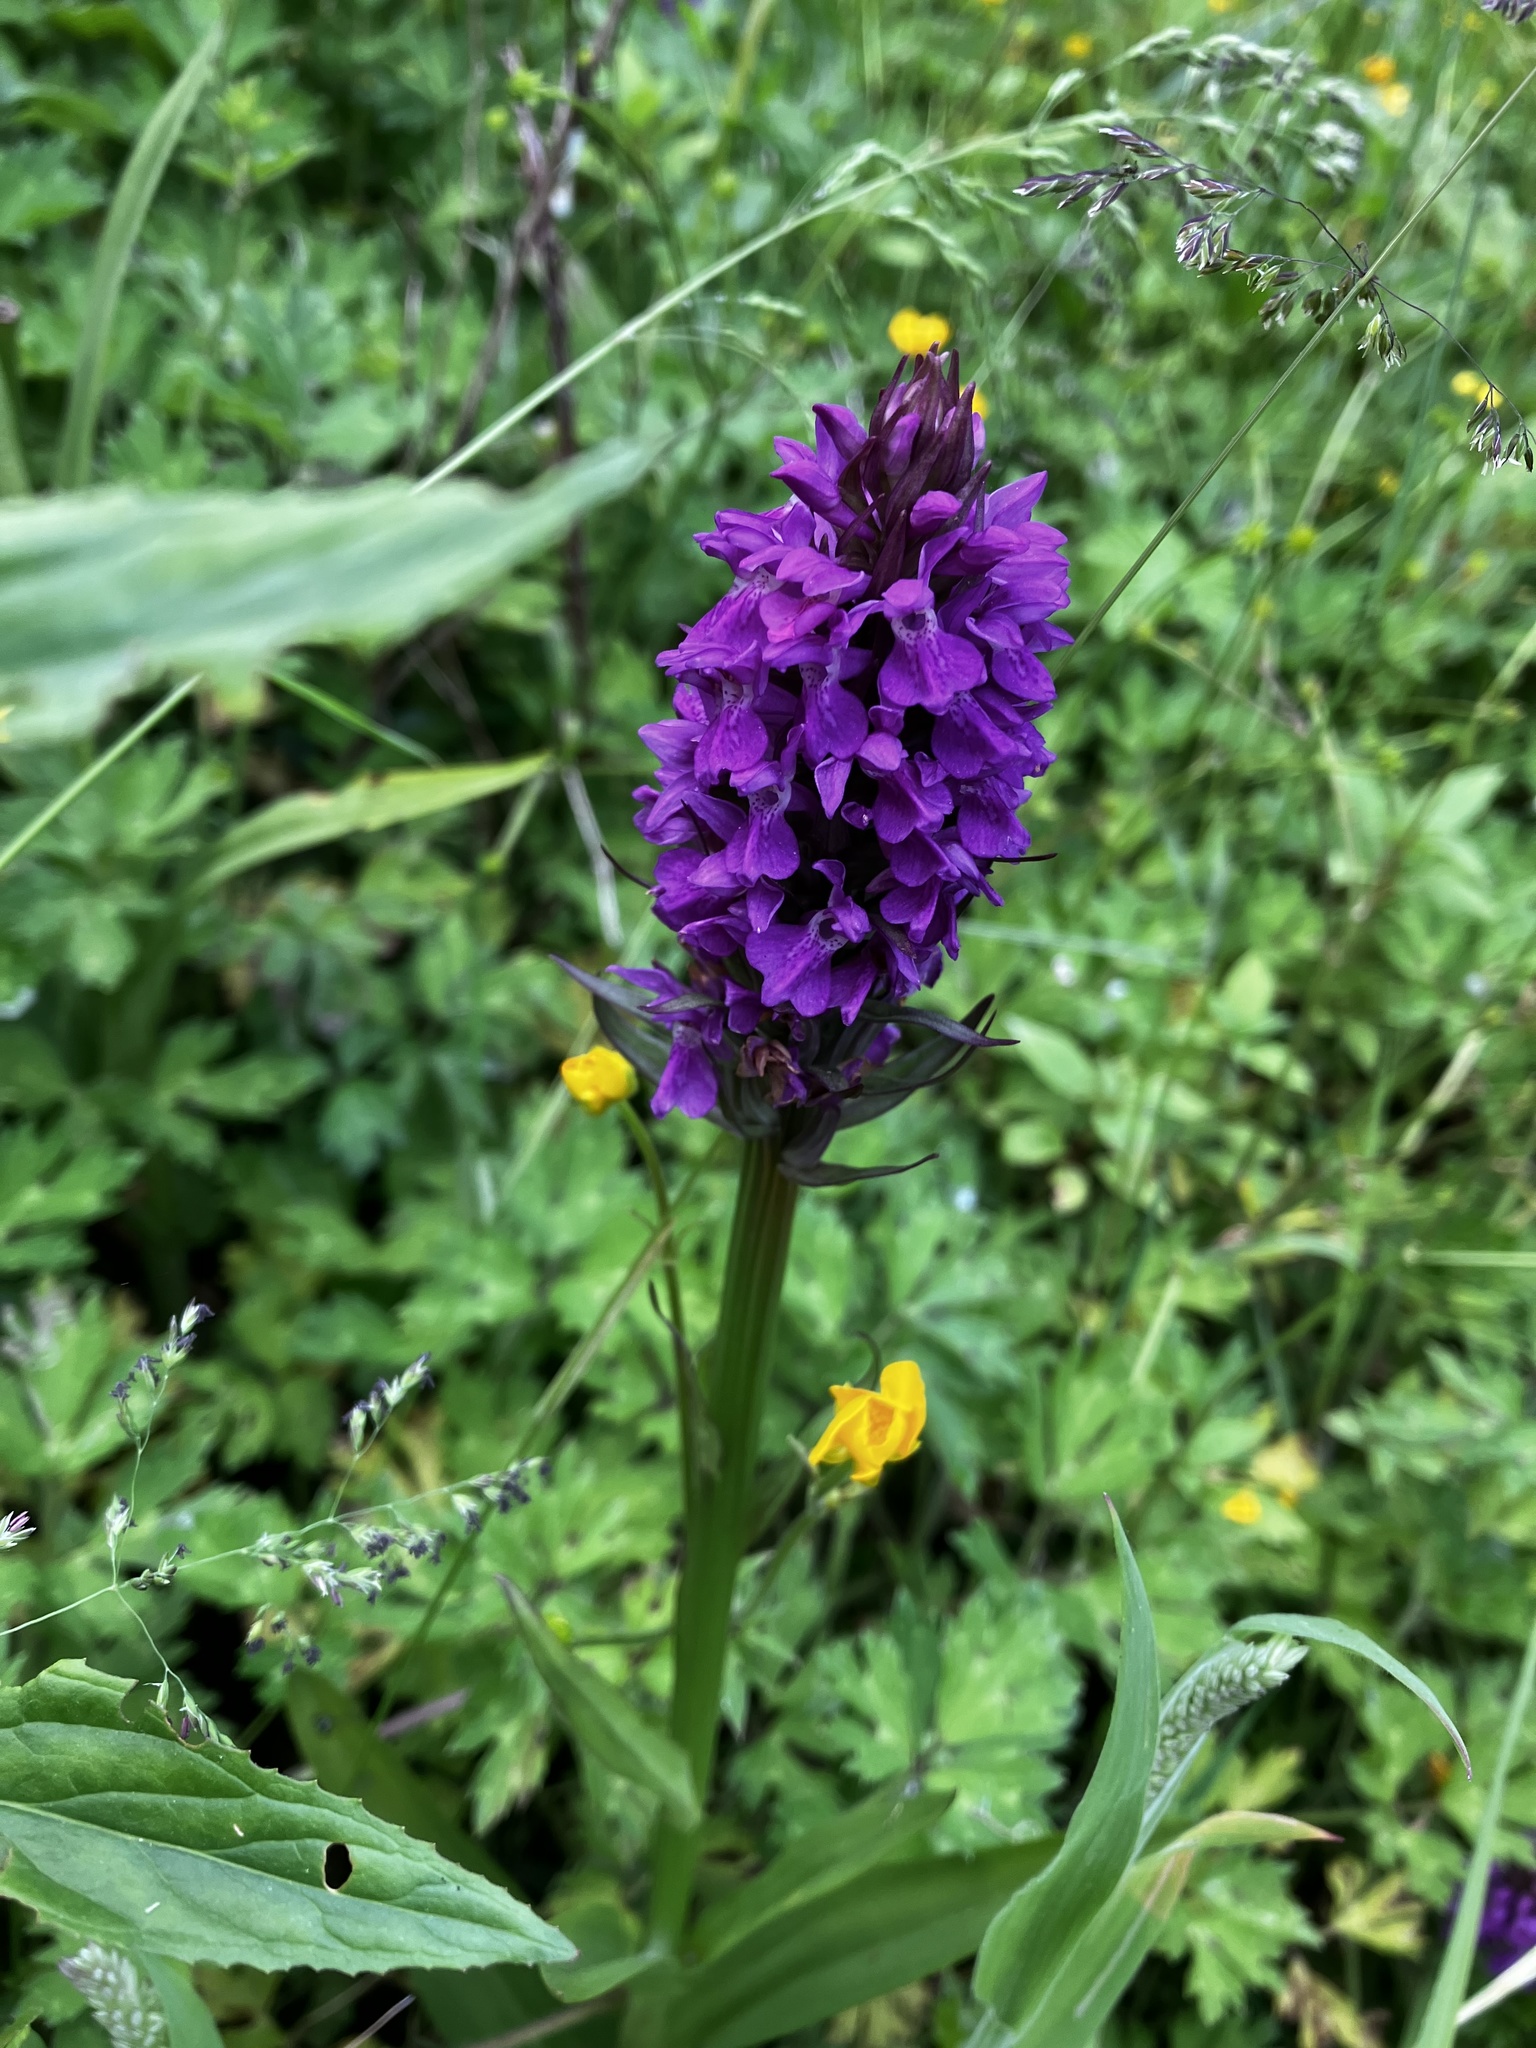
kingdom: Plantae
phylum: Tracheophyta
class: Liliopsida
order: Asparagales
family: Orchidaceae
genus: Dactylorhiza
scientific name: Dactylorhiza majalis
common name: Marsh orchid
